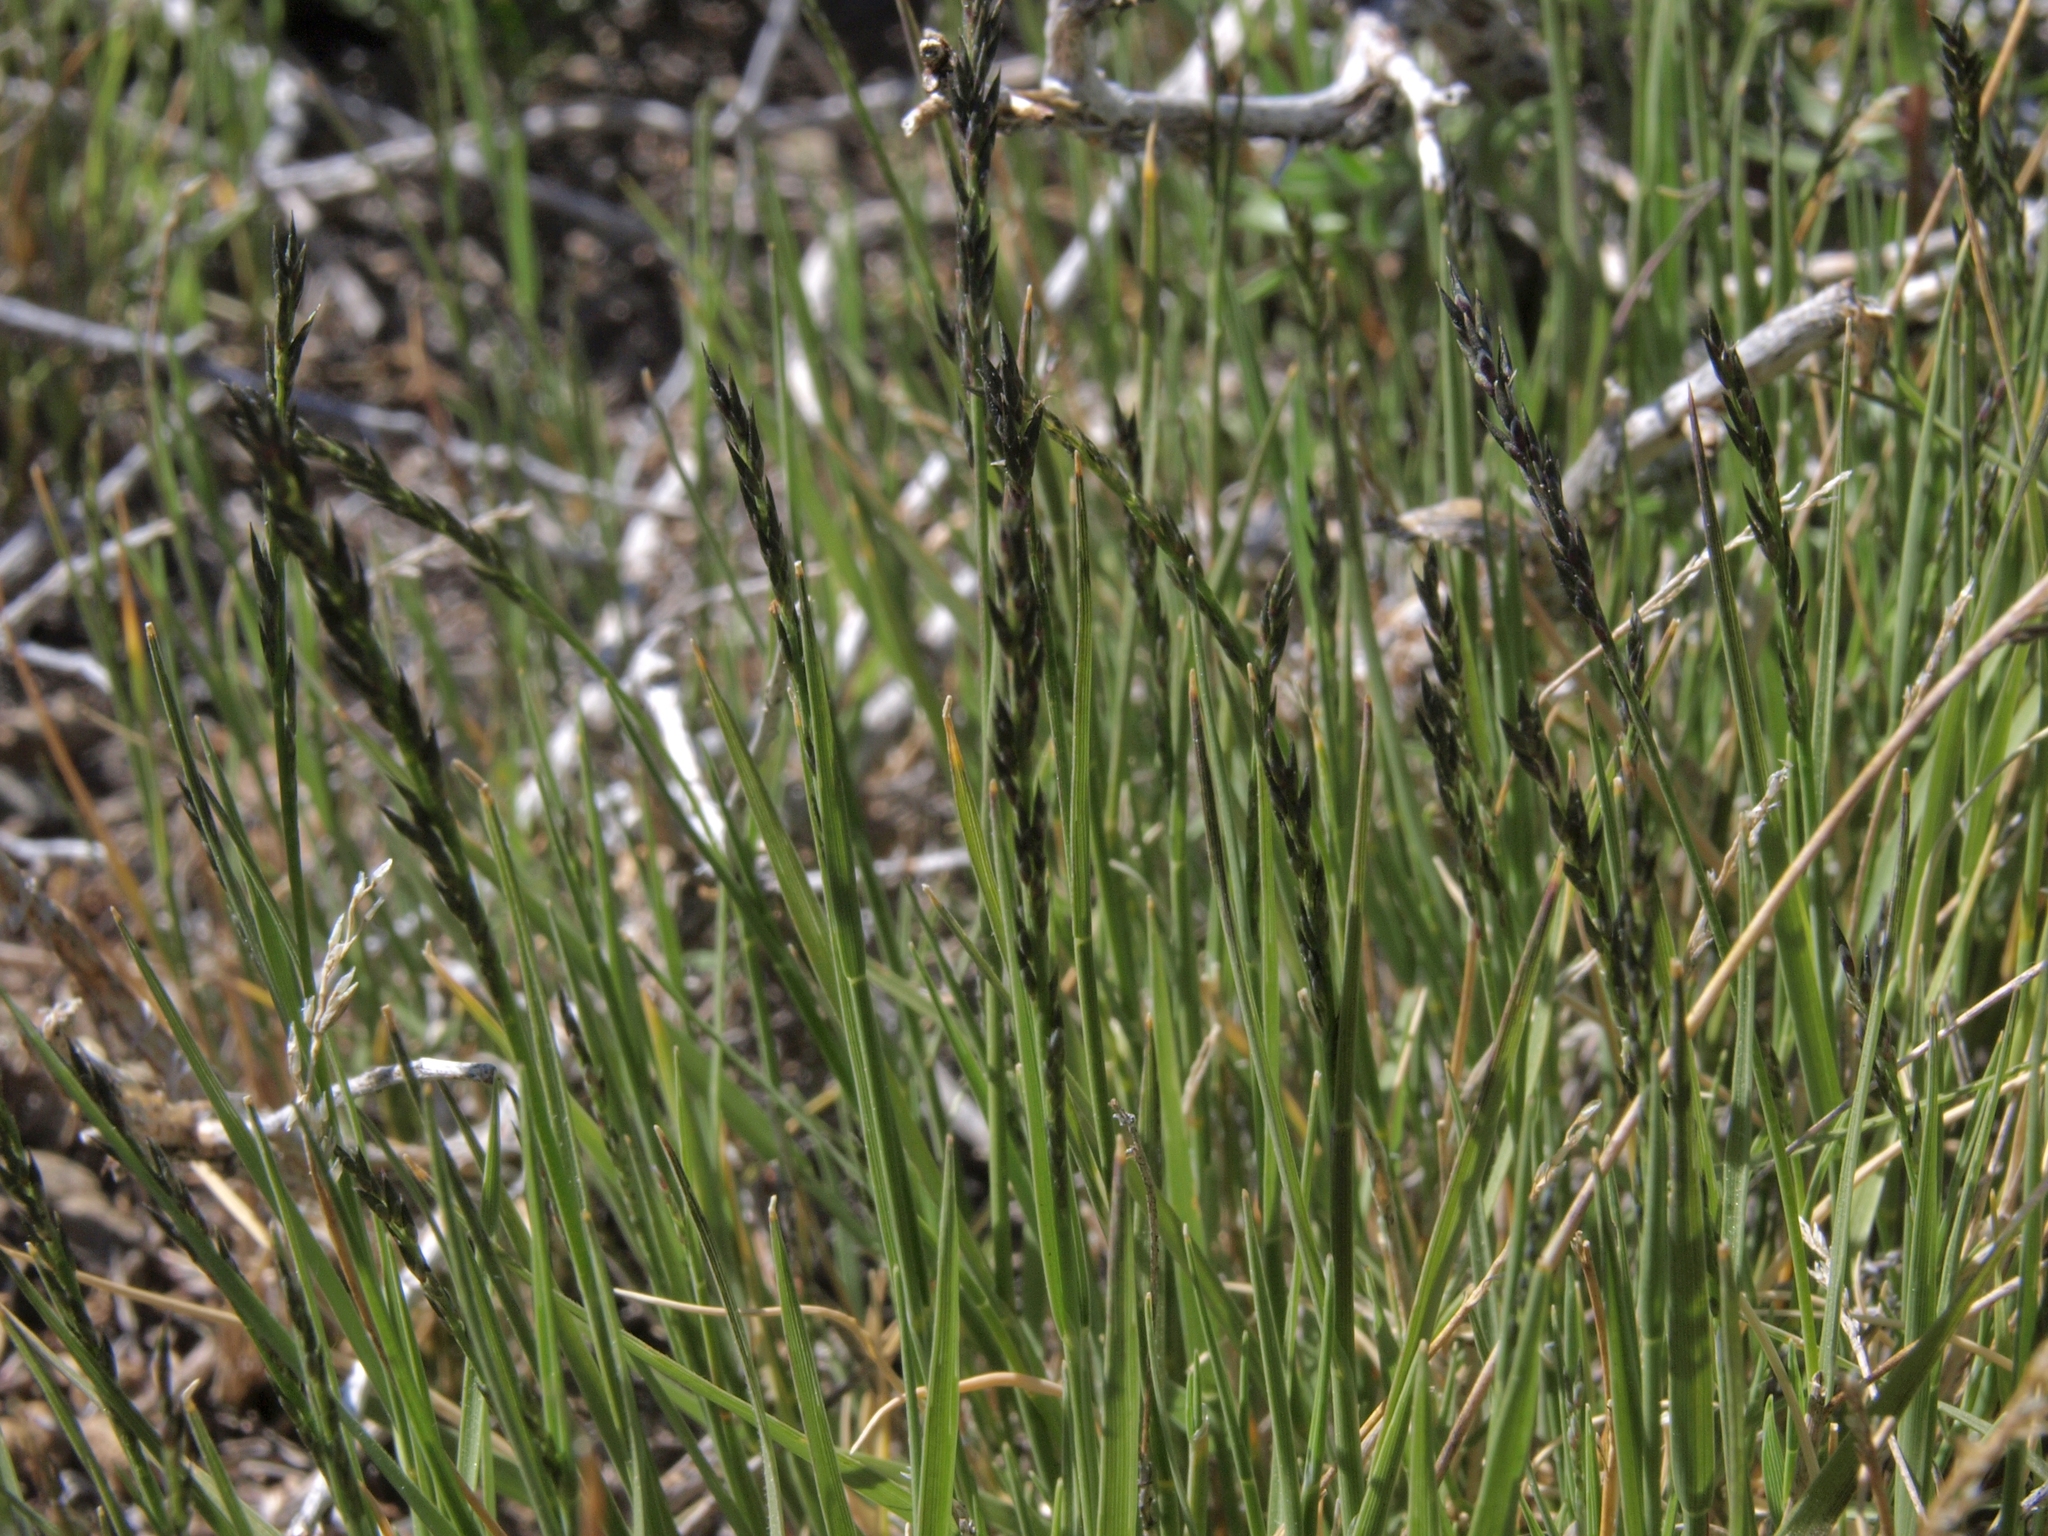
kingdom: Plantae
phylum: Tracheophyta
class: Liliopsida
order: Poales
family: Poaceae
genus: Muhlenbergia
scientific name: Muhlenbergia richardsonis
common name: Mat muhly
